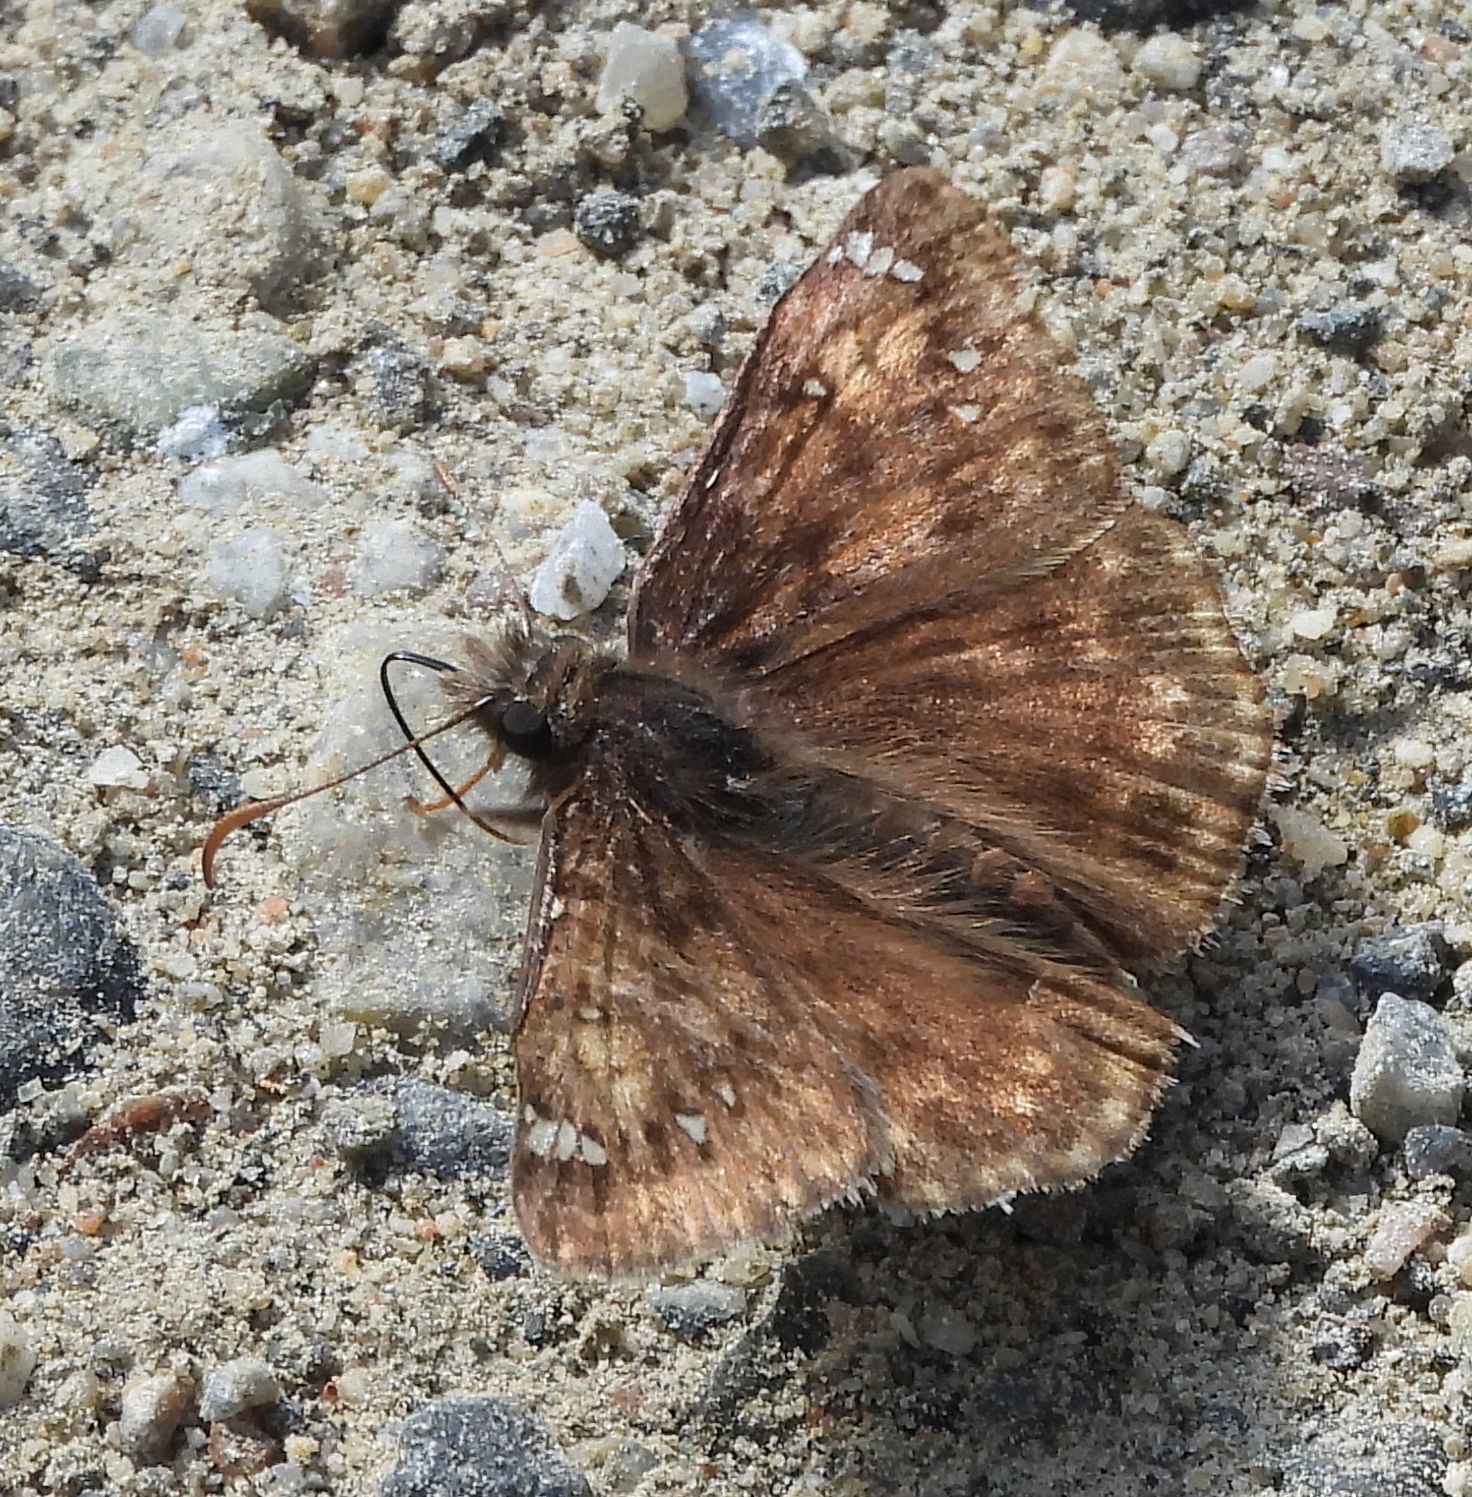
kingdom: Animalia
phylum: Arthropoda
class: Insecta
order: Lepidoptera
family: Hesperiidae
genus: Erynnis
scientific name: Erynnis juvenalis
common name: Juvenal's duskywing
